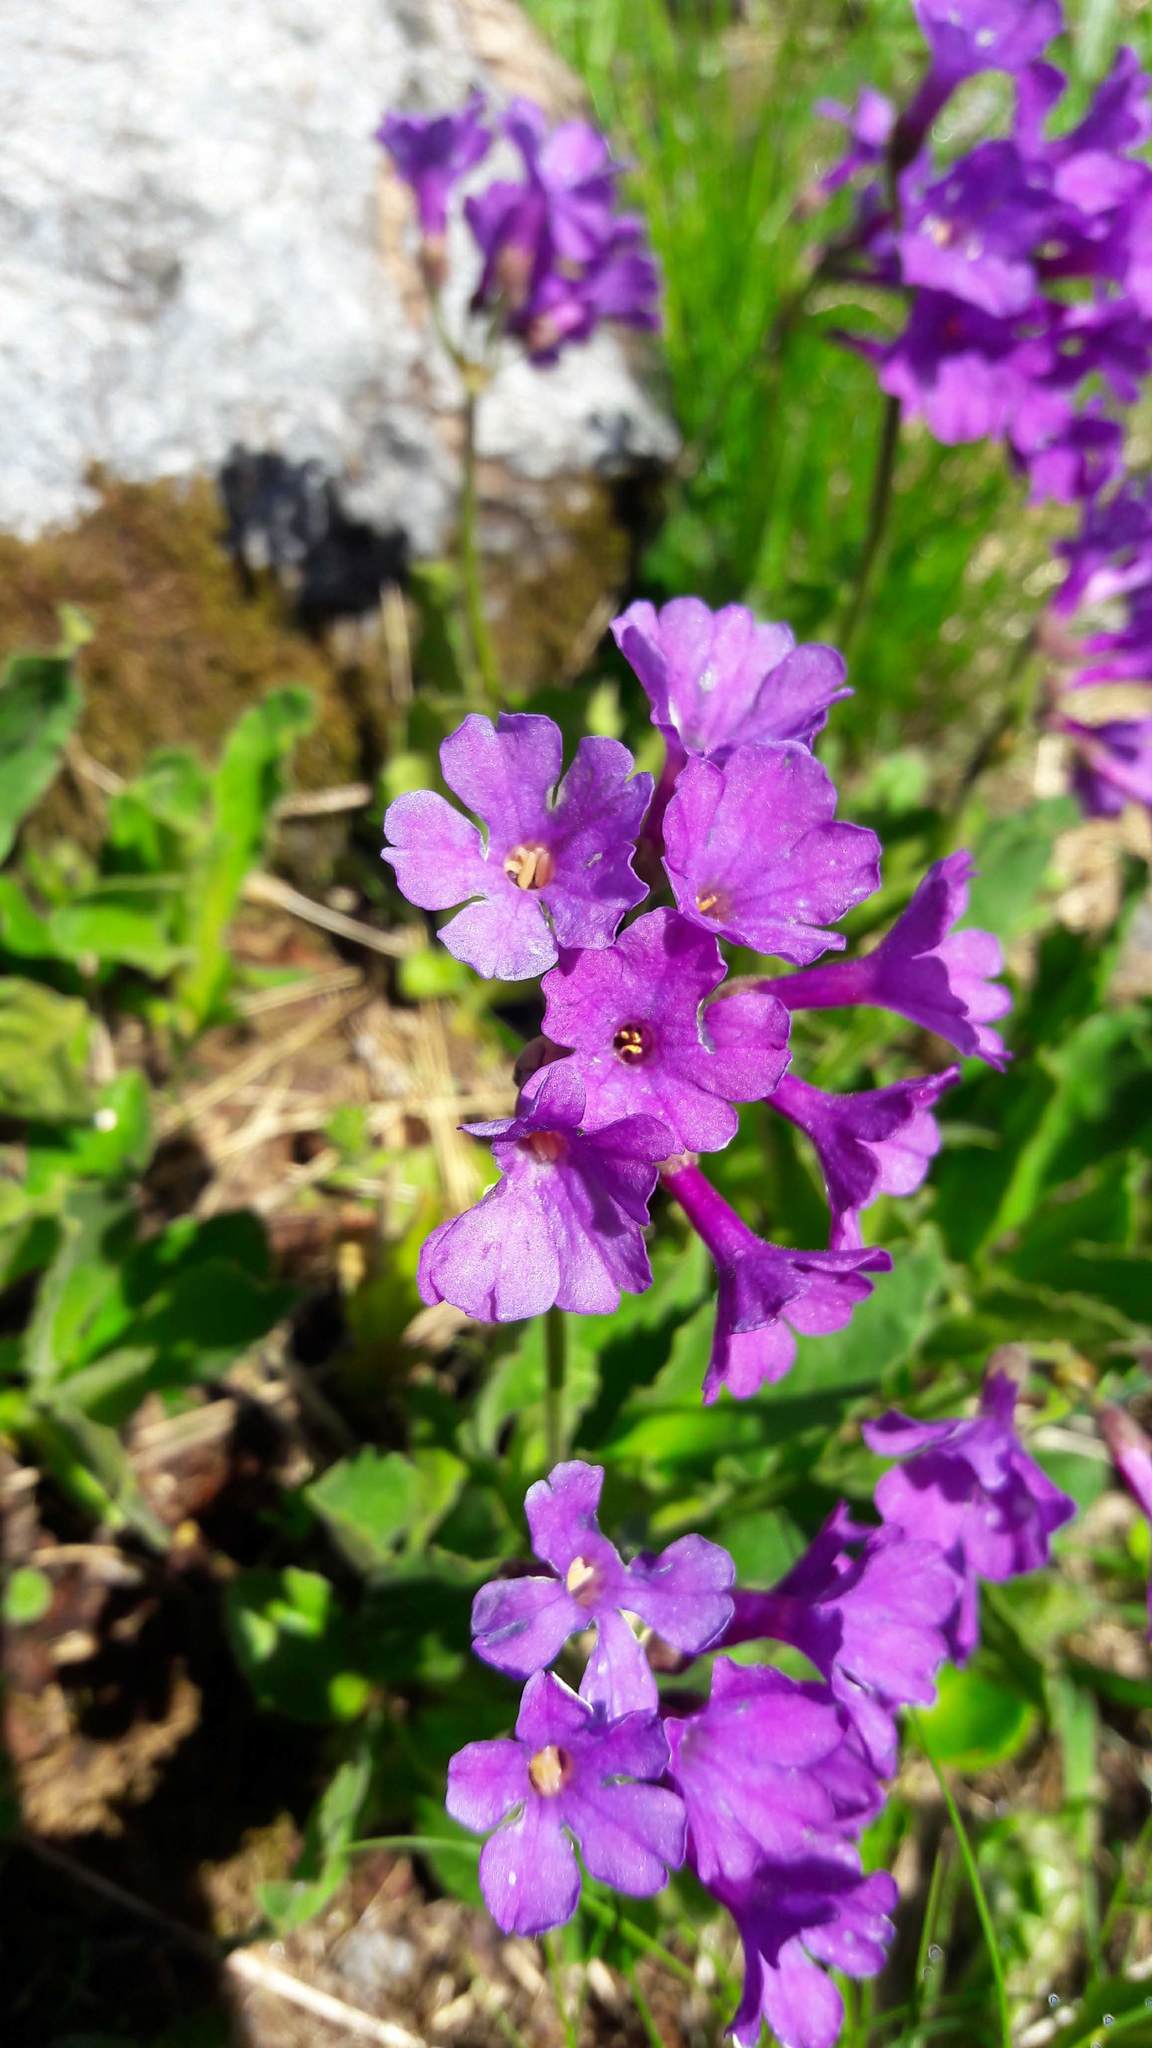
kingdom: Plantae
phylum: Tracheophyta
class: Magnoliopsida
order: Ericales
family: Primulaceae
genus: Primula
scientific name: Primula latifolia
